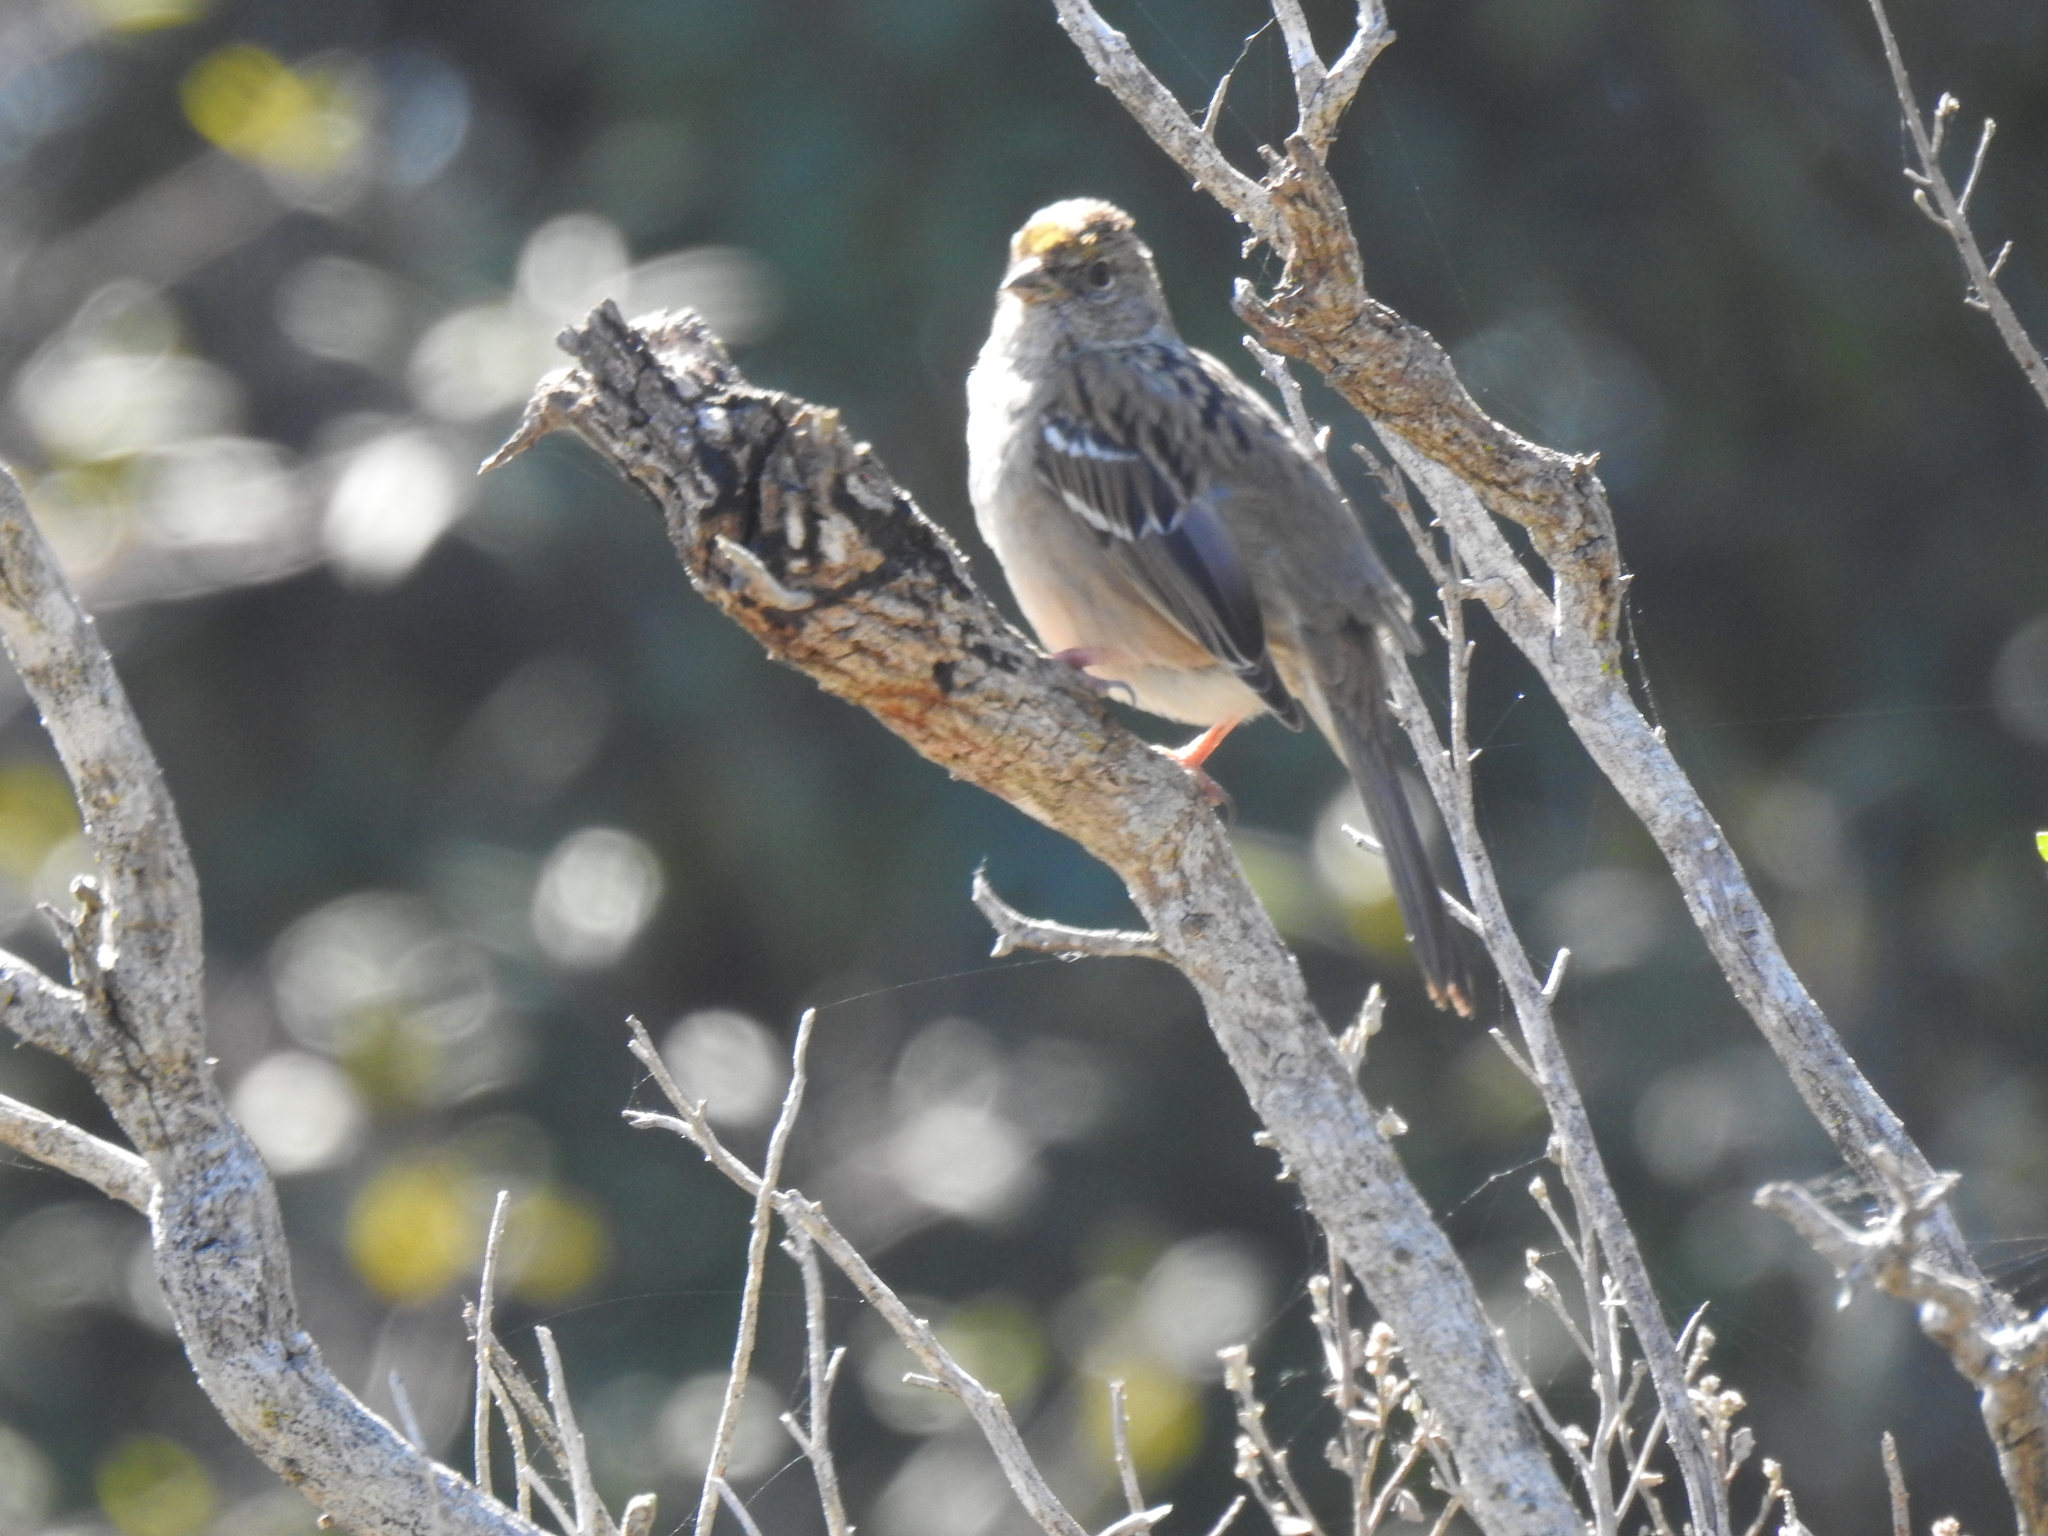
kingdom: Animalia
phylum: Chordata
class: Aves
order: Passeriformes
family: Passerellidae
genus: Zonotrichia
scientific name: Zonotrichia atricapilla
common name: Golden-crowned sparrow
